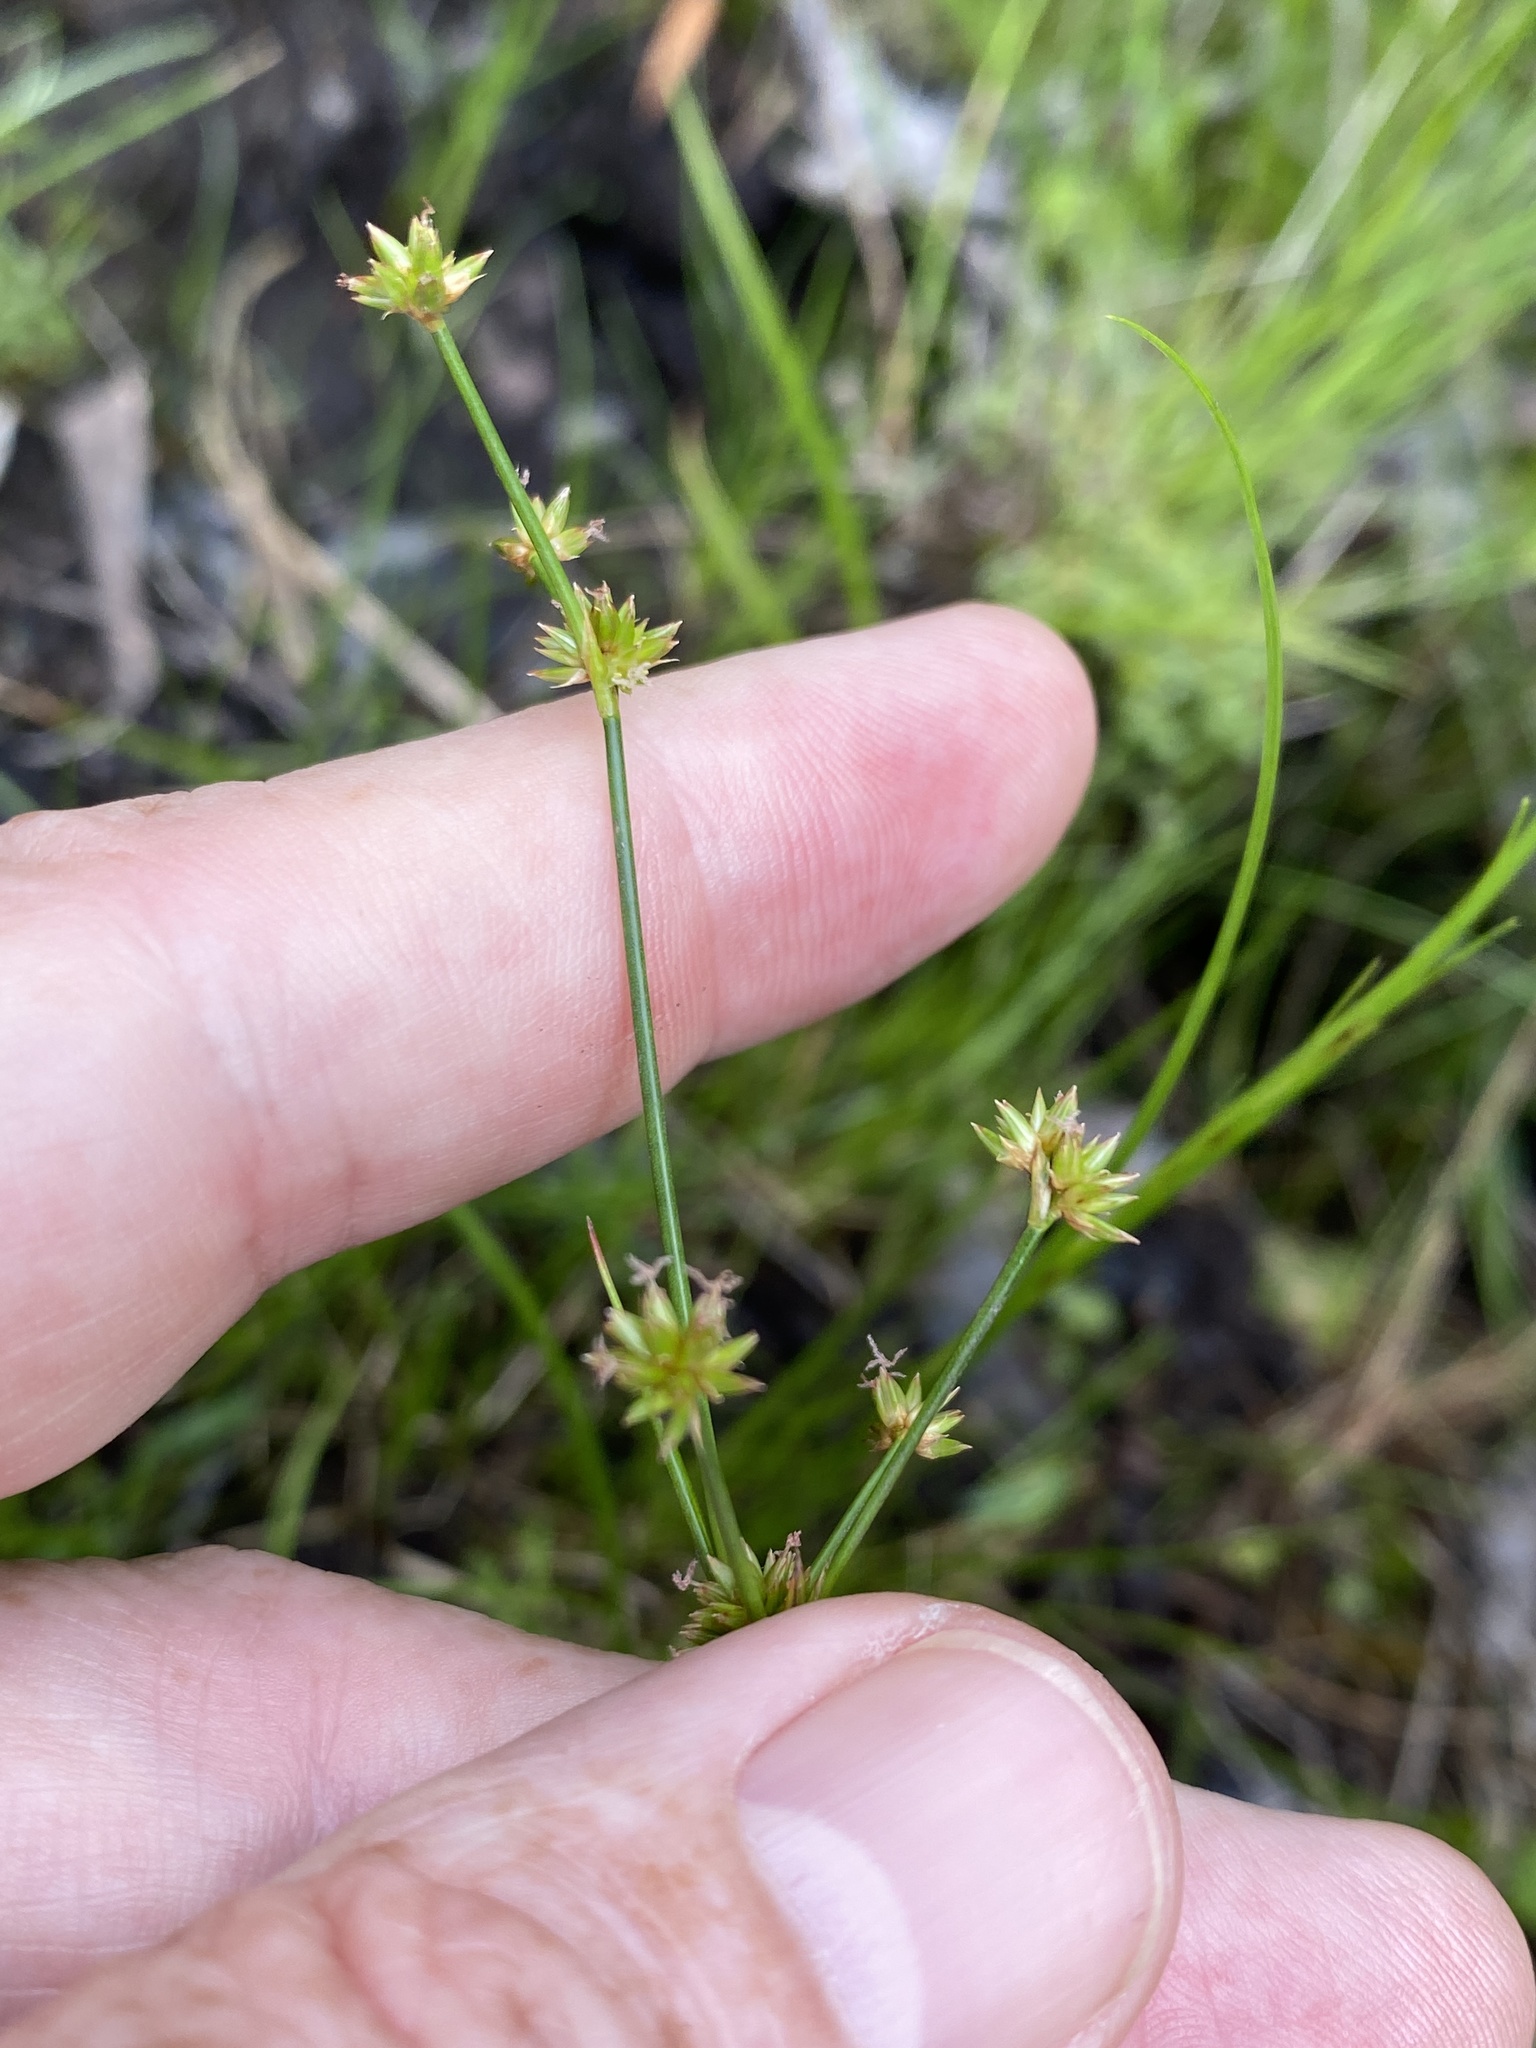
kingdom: Plantae
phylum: Tracheophyta
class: Liliopsida
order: Poales
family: Juncaceae
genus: Juncus
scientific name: Juncus subcaudatus
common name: Engelmann's rush
